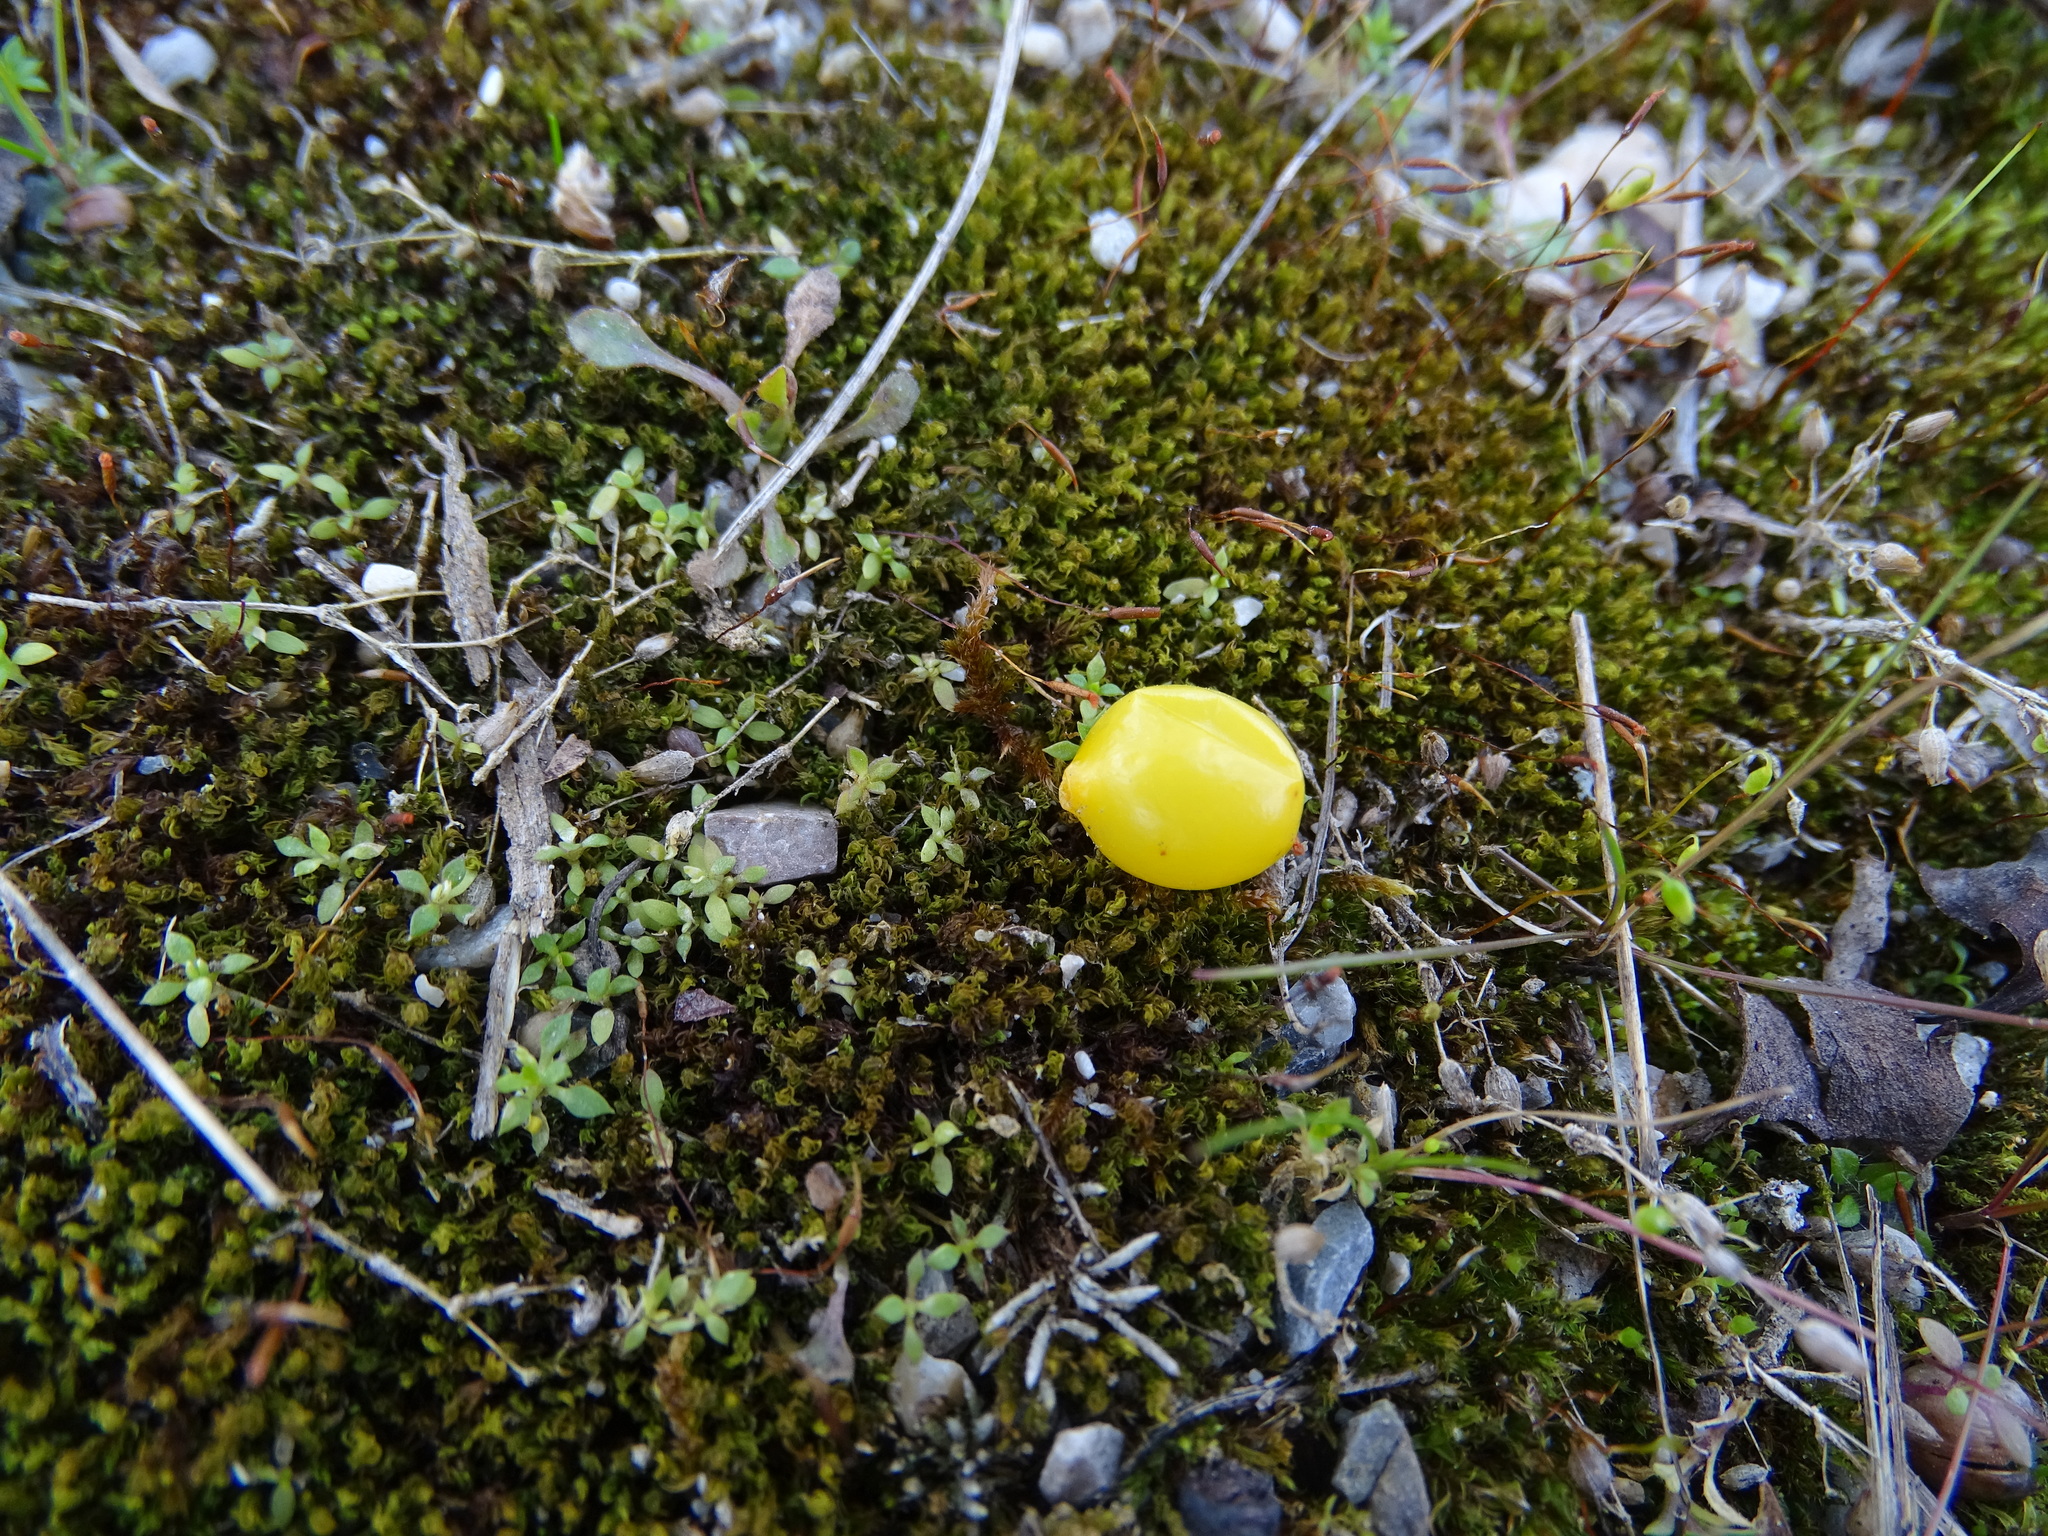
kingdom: Plantae
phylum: Tracheophyta
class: Magnoliopsida
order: Santalales
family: Loranthaceae
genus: Loranthus
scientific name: Loranthus europaeus
